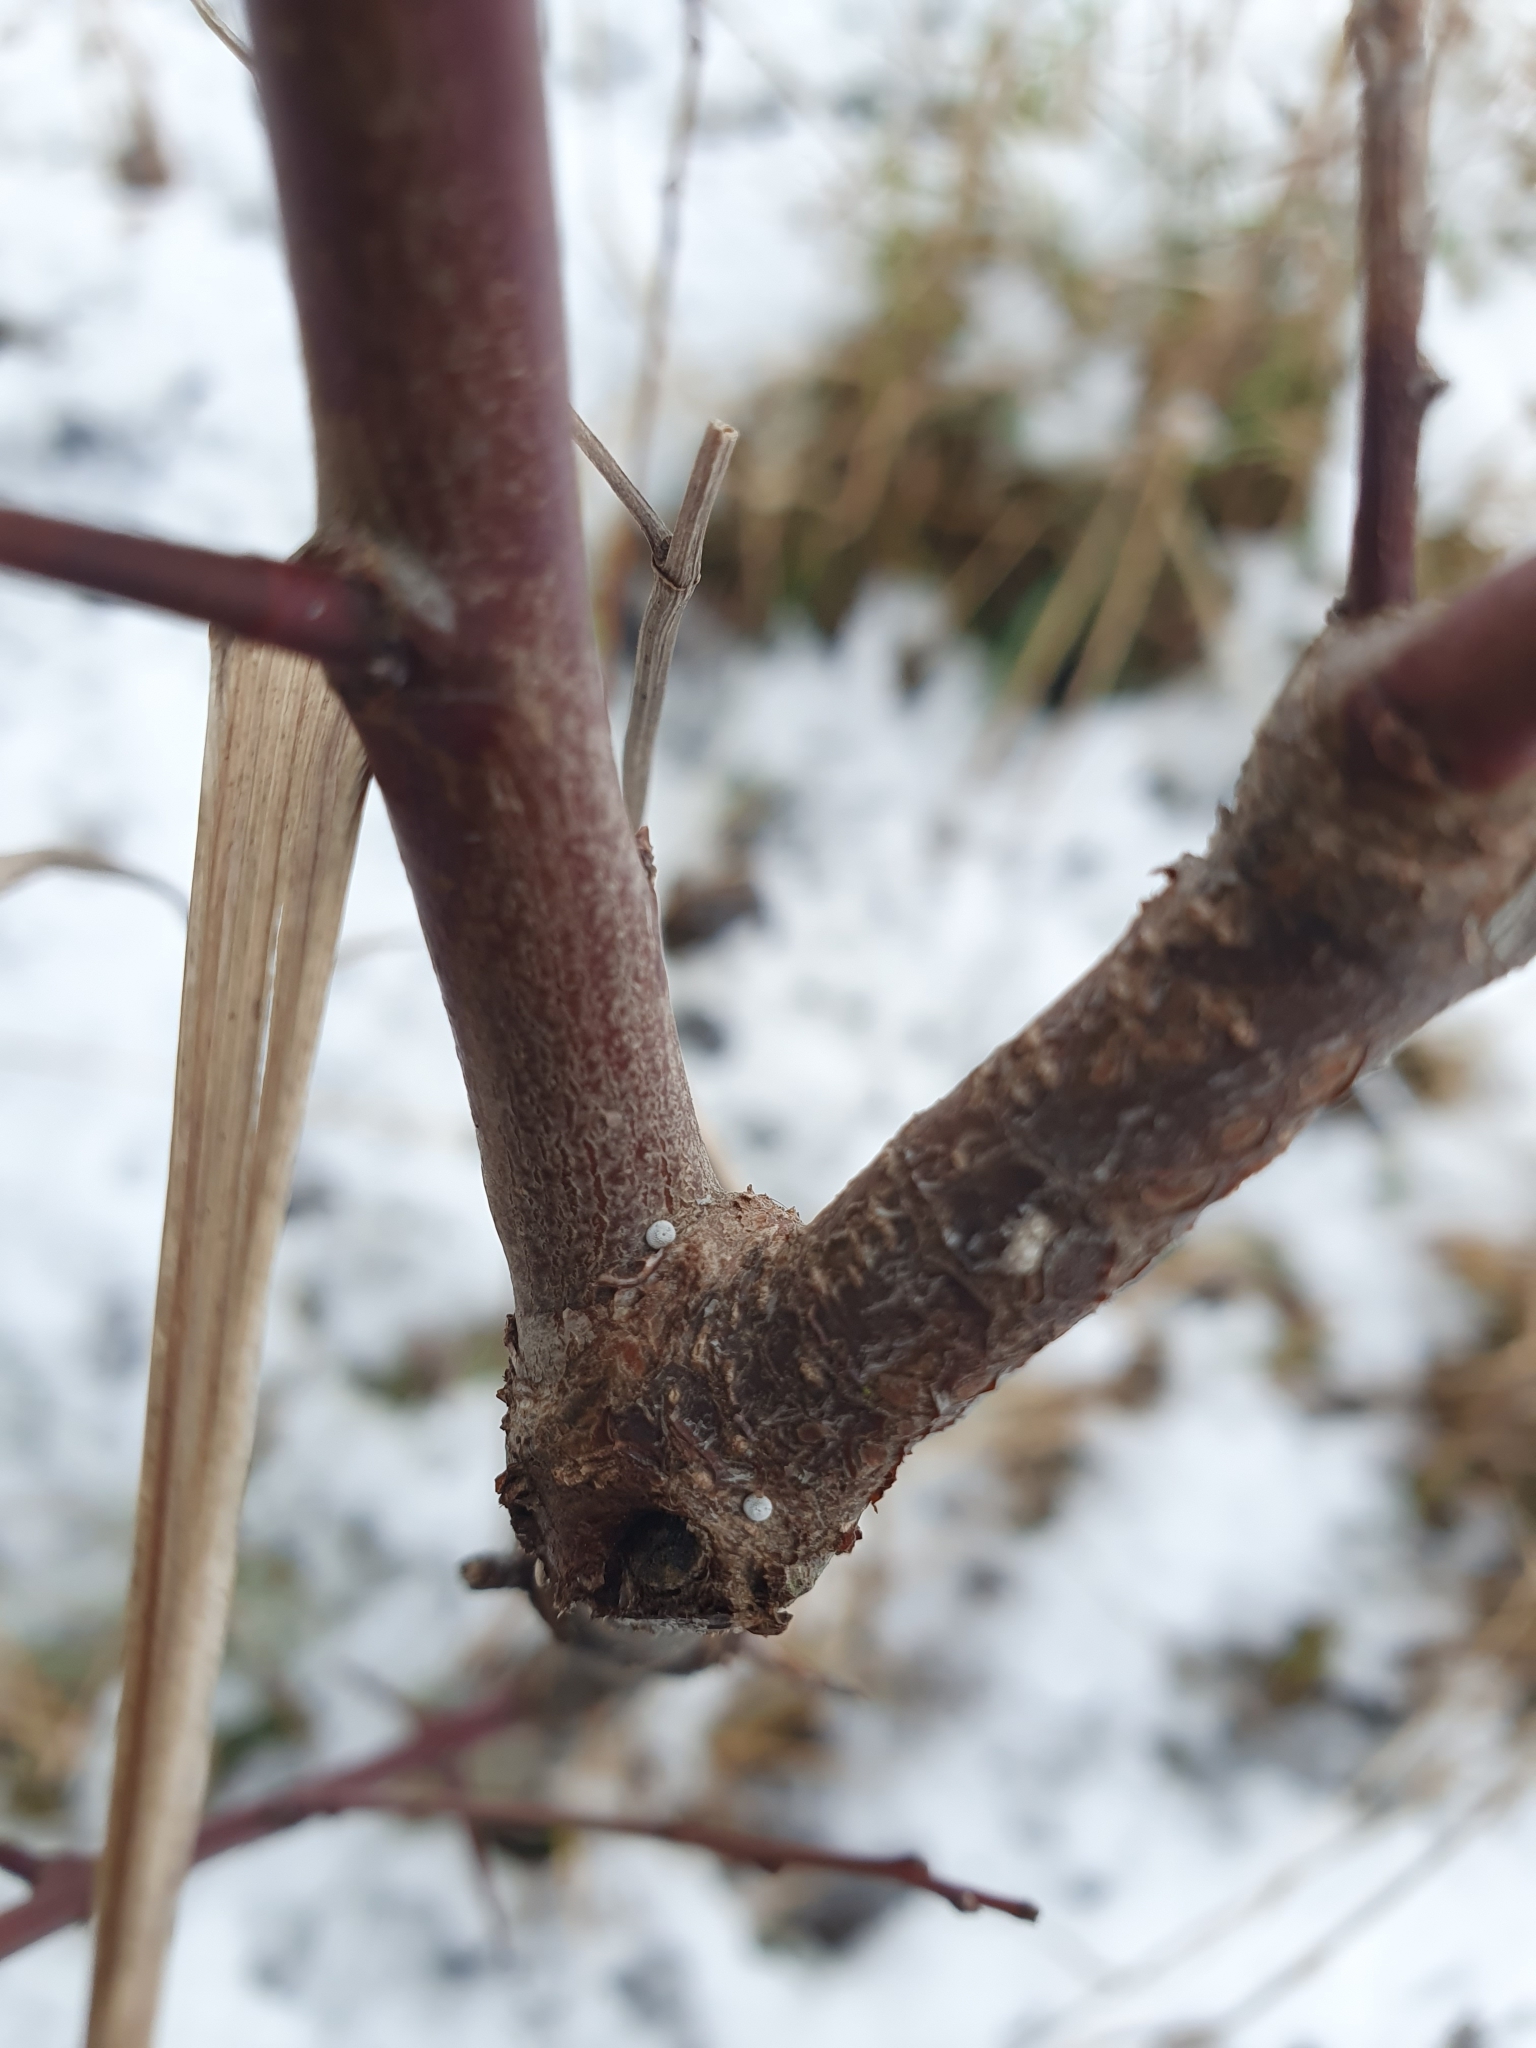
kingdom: Animalia
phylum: Arthropoda
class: Insecta
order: Lepidoptera
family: Lycaenidae
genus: Thecla
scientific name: Thecla betulae
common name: Brown hairstreak
